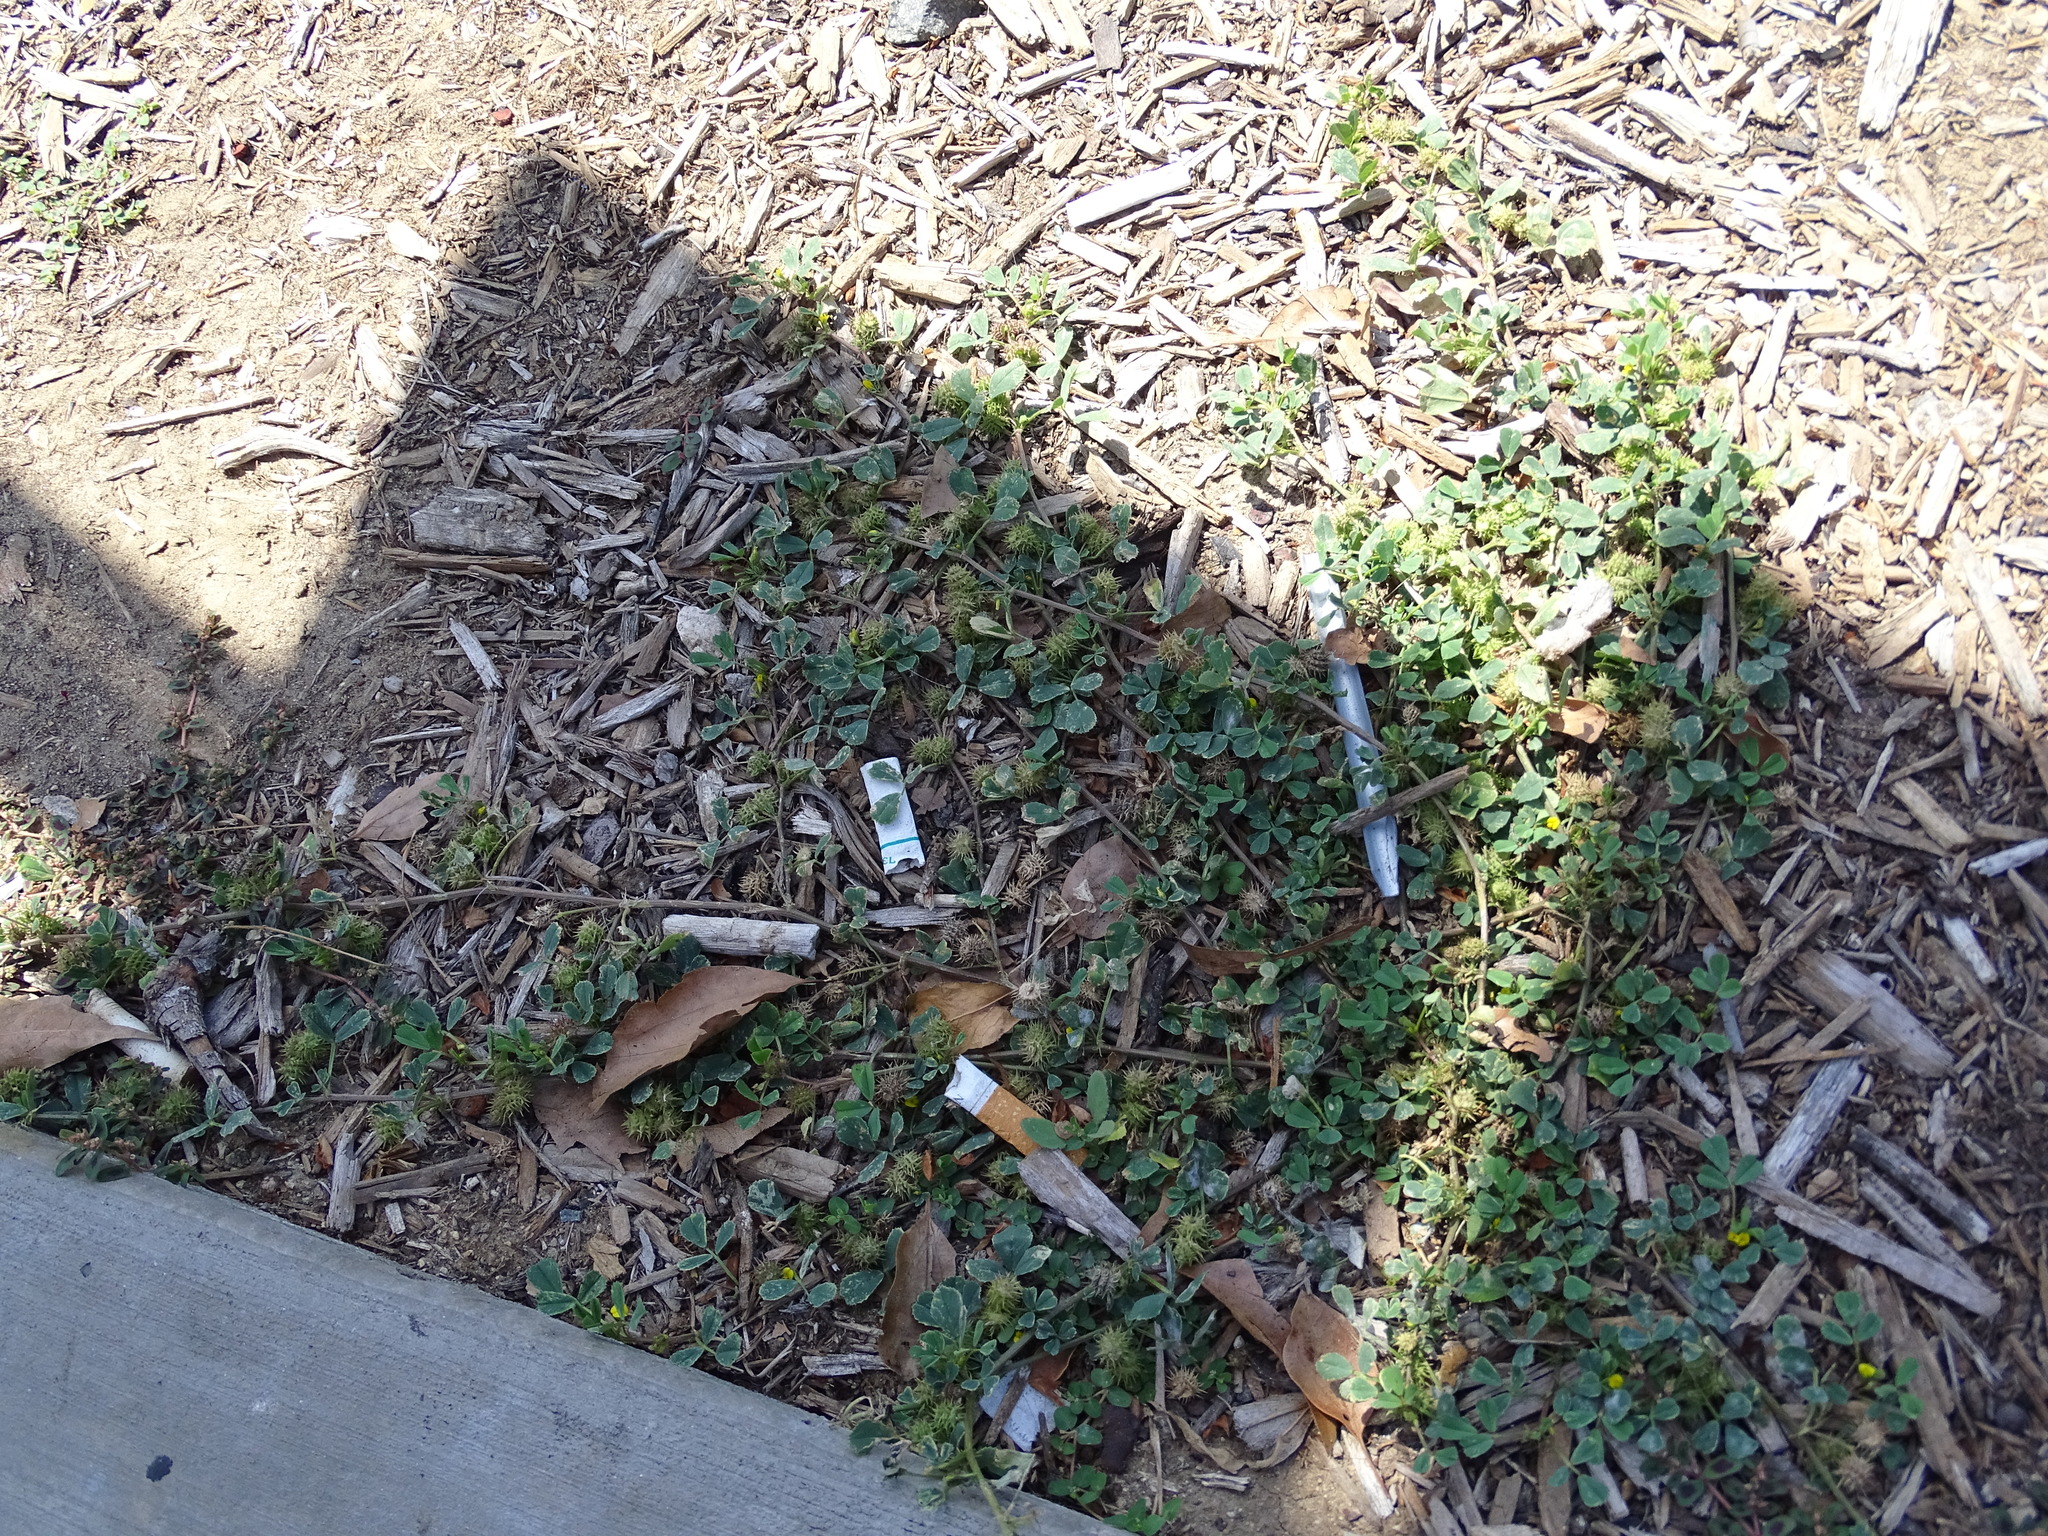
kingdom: Plantae
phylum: Tracheophyta
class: Magnoliopsida
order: Fabales
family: Fabaceae
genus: Medicago
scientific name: Medicago polymorpha
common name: Burclover
